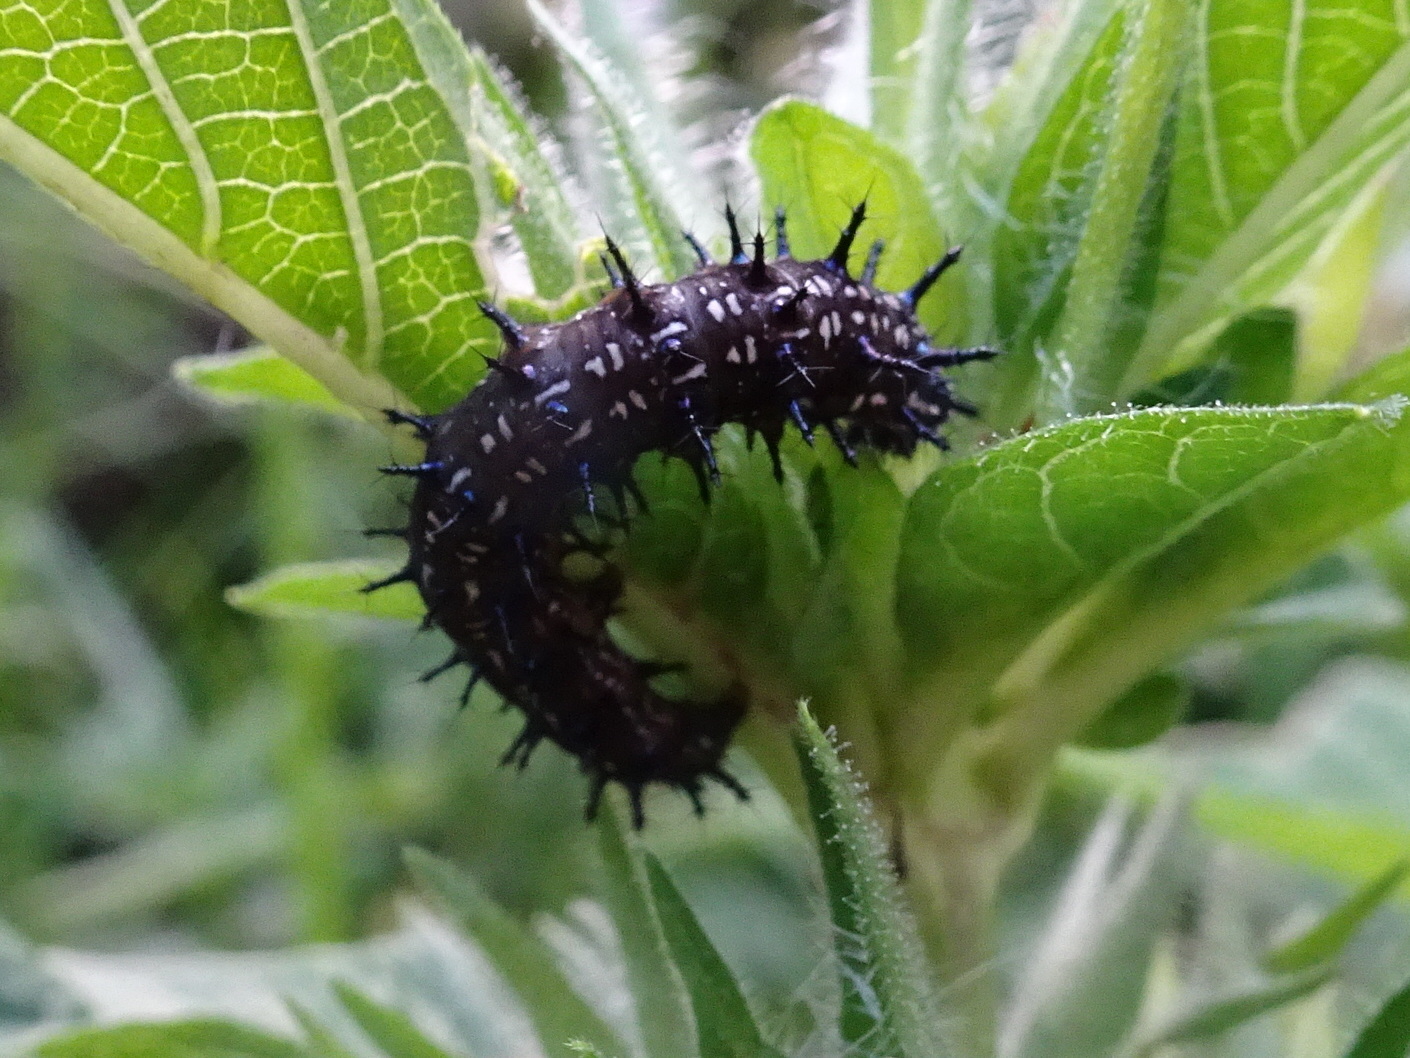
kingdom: Animalia
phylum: Arthropoda
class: Insecta
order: Lepidoptera
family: Nymphalidae
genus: Junonia
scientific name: Junonia coenia
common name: Common buckeye
